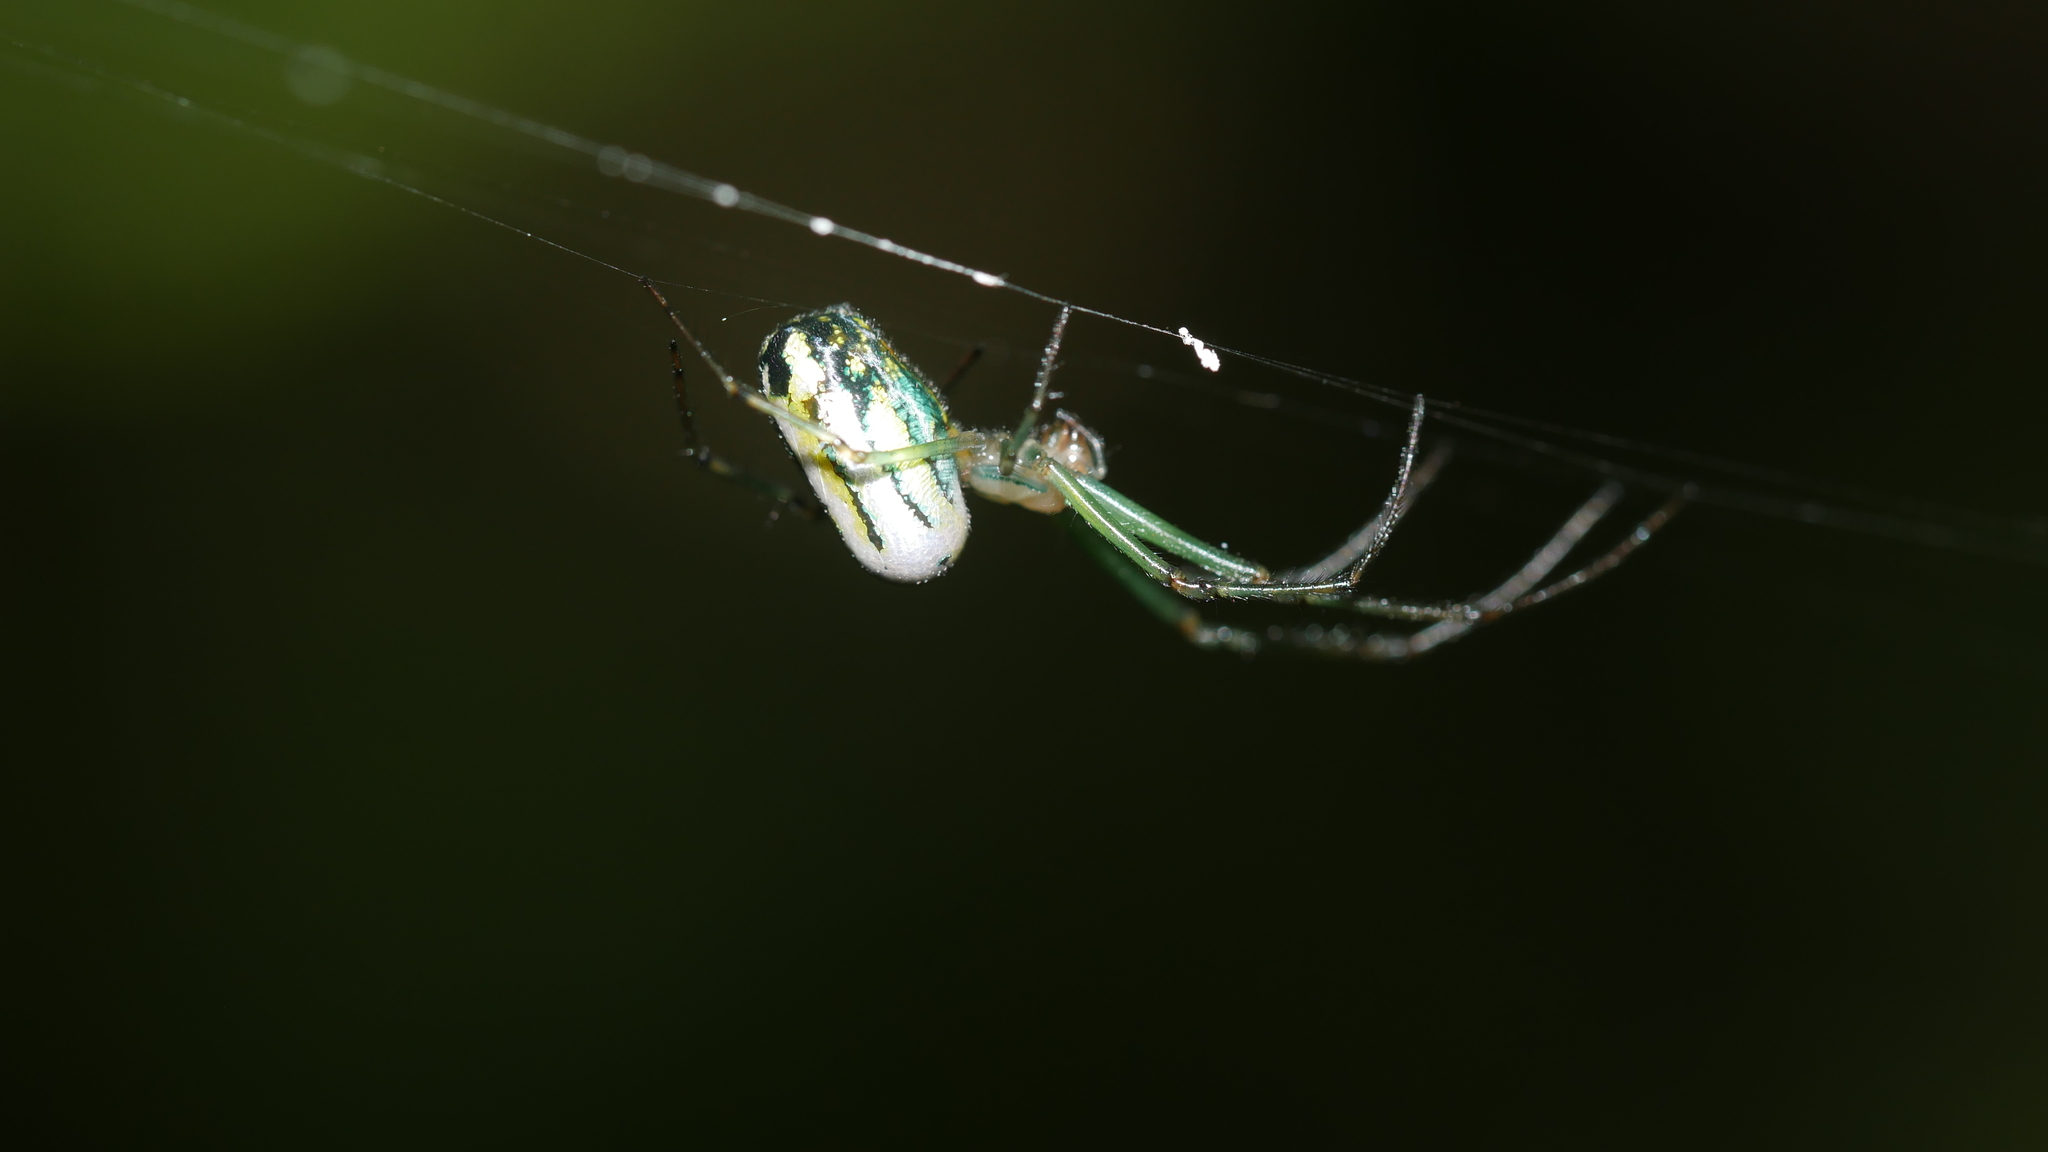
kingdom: Animalia
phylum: Arthropoda
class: Arachnida
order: Araneae
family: Tetragnathidae
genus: Leucauge
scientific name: Leucauge venusta
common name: Longjawed orb weavers
